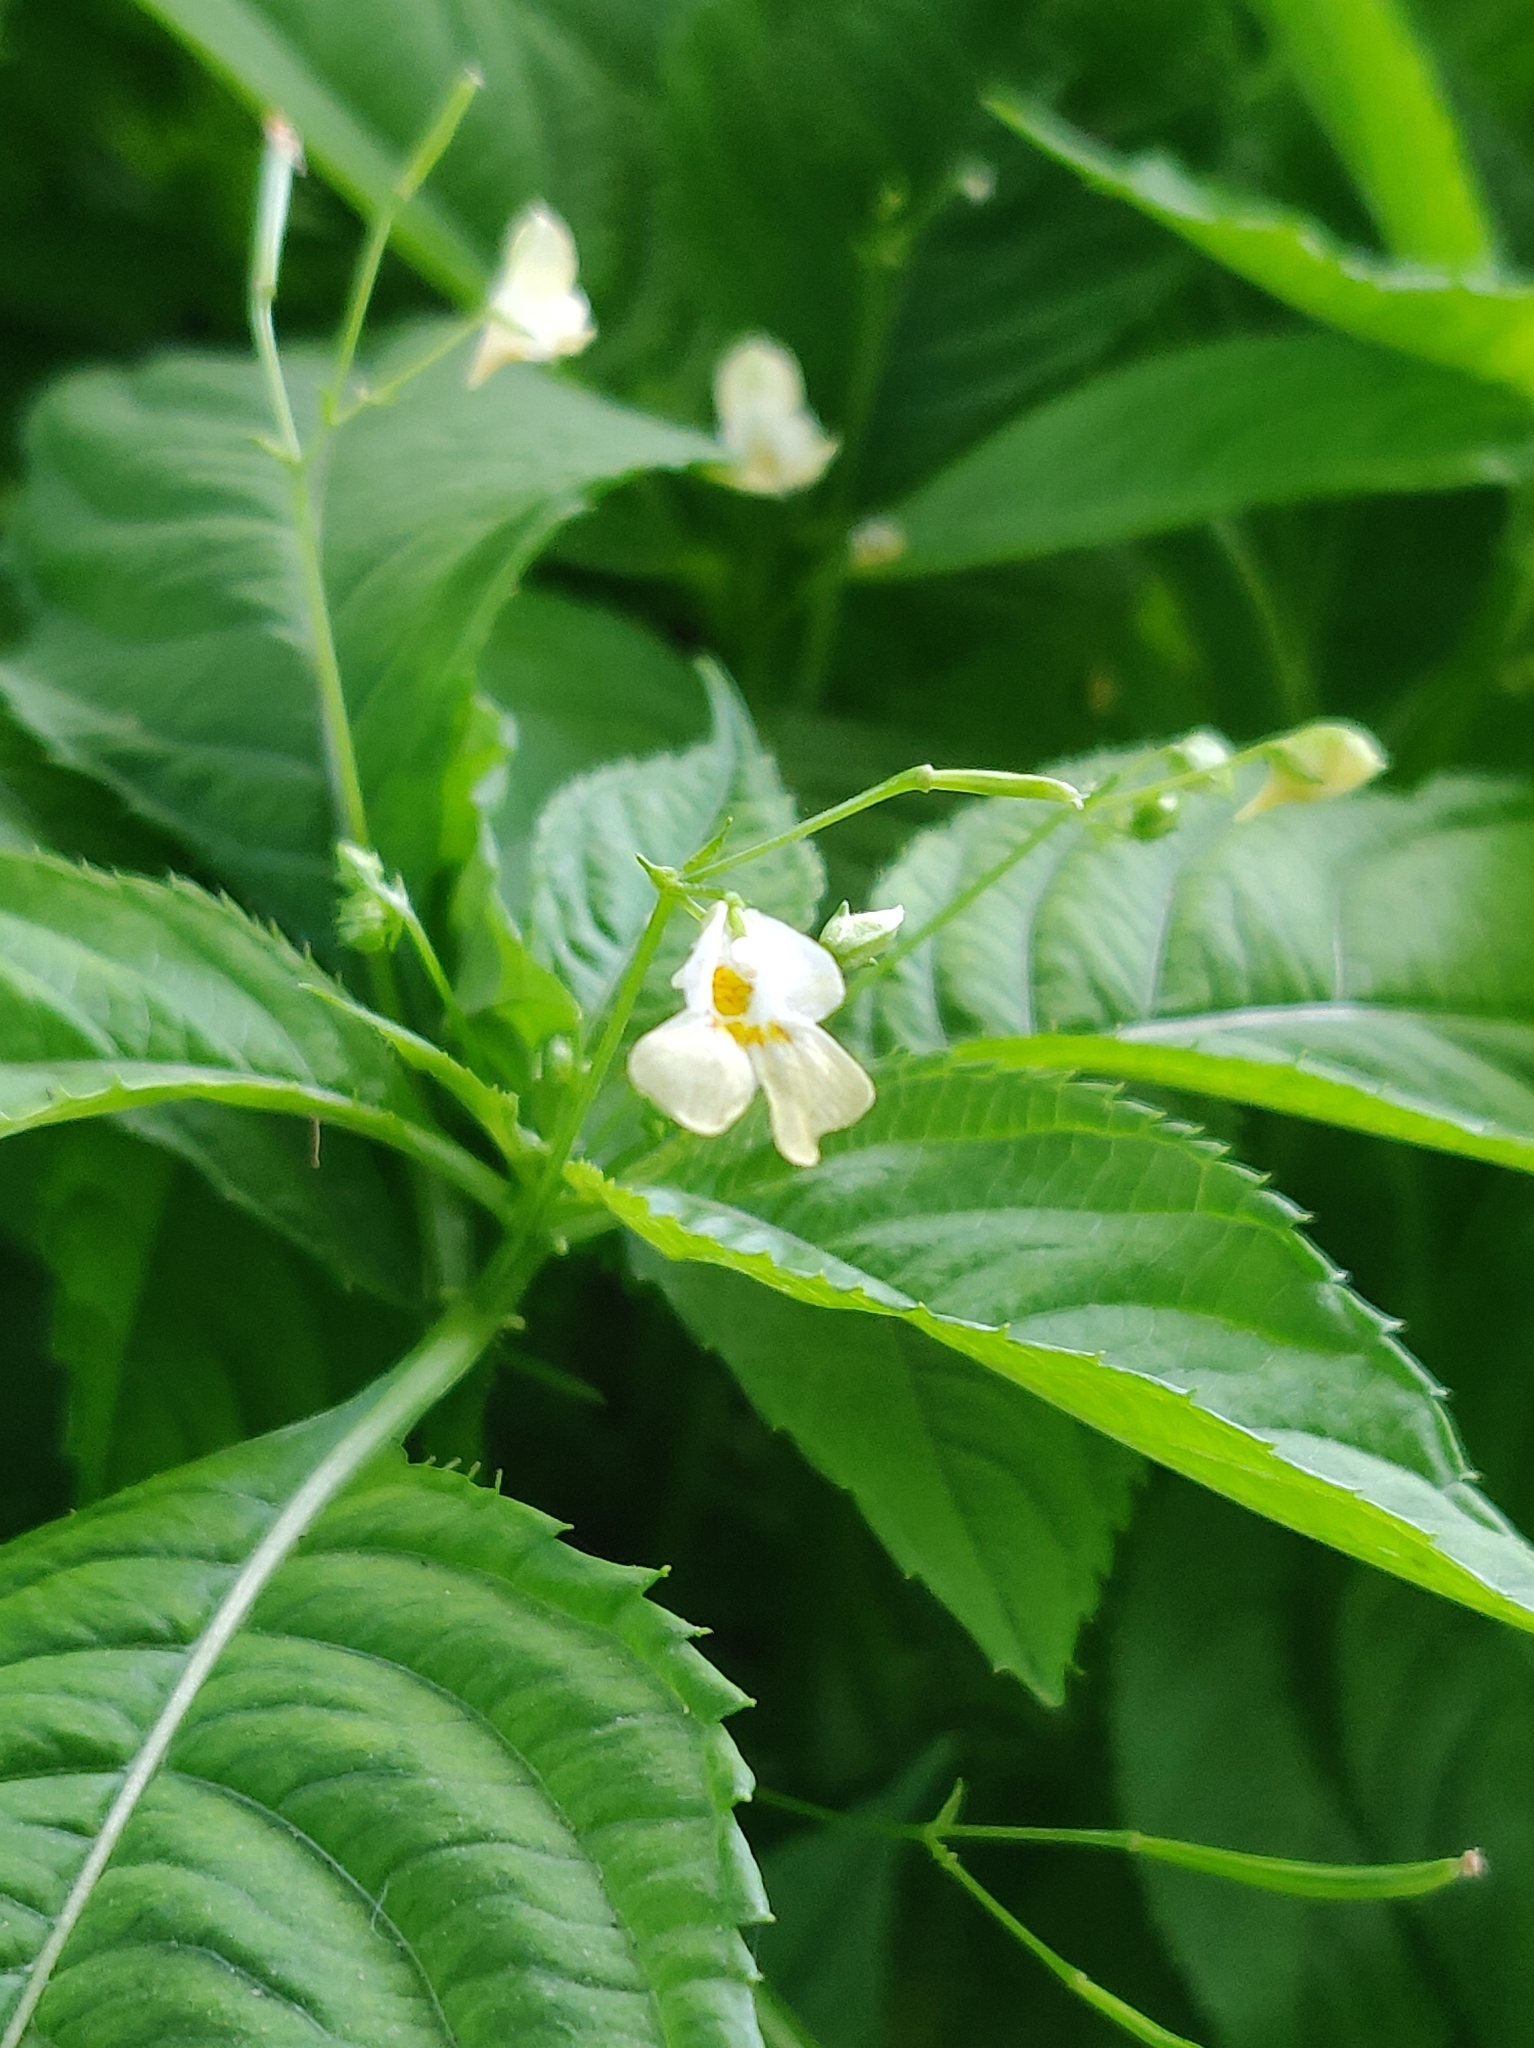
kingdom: Plantae
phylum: Tracheophyta
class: Magnoliopsida
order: Ericales
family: Balsaminaceae
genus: Impatiens
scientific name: Impatiens parviflora
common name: Small balsam
